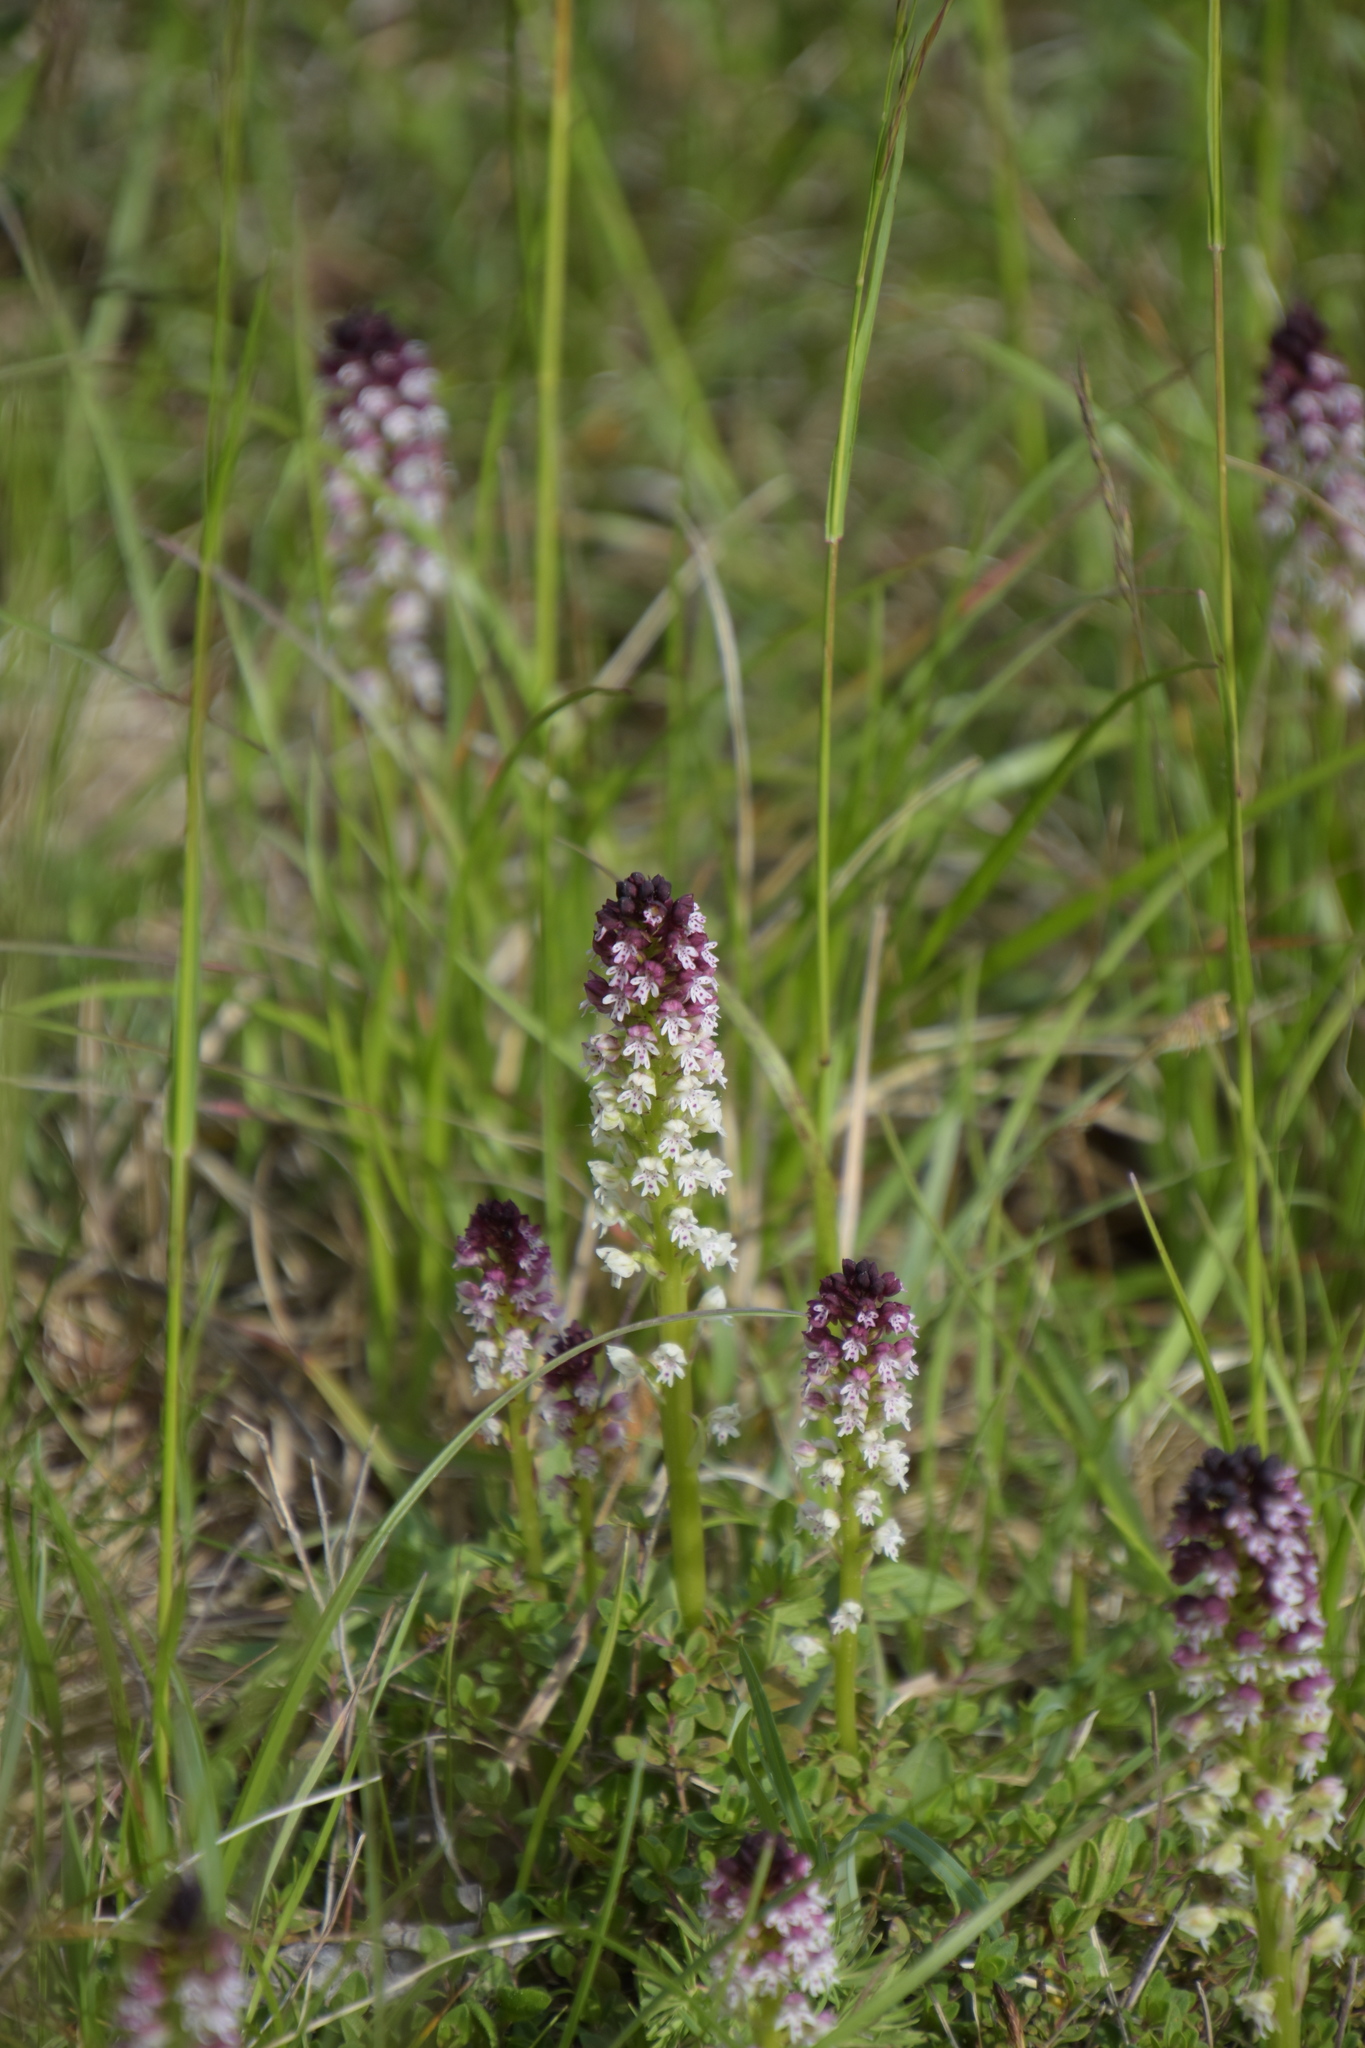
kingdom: Plantae
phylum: Tracheophyta
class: Liliopsida
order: Asparagales
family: Orchidaceae
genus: Neotinea
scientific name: Neotinea ustulata
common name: Burnt orchid
